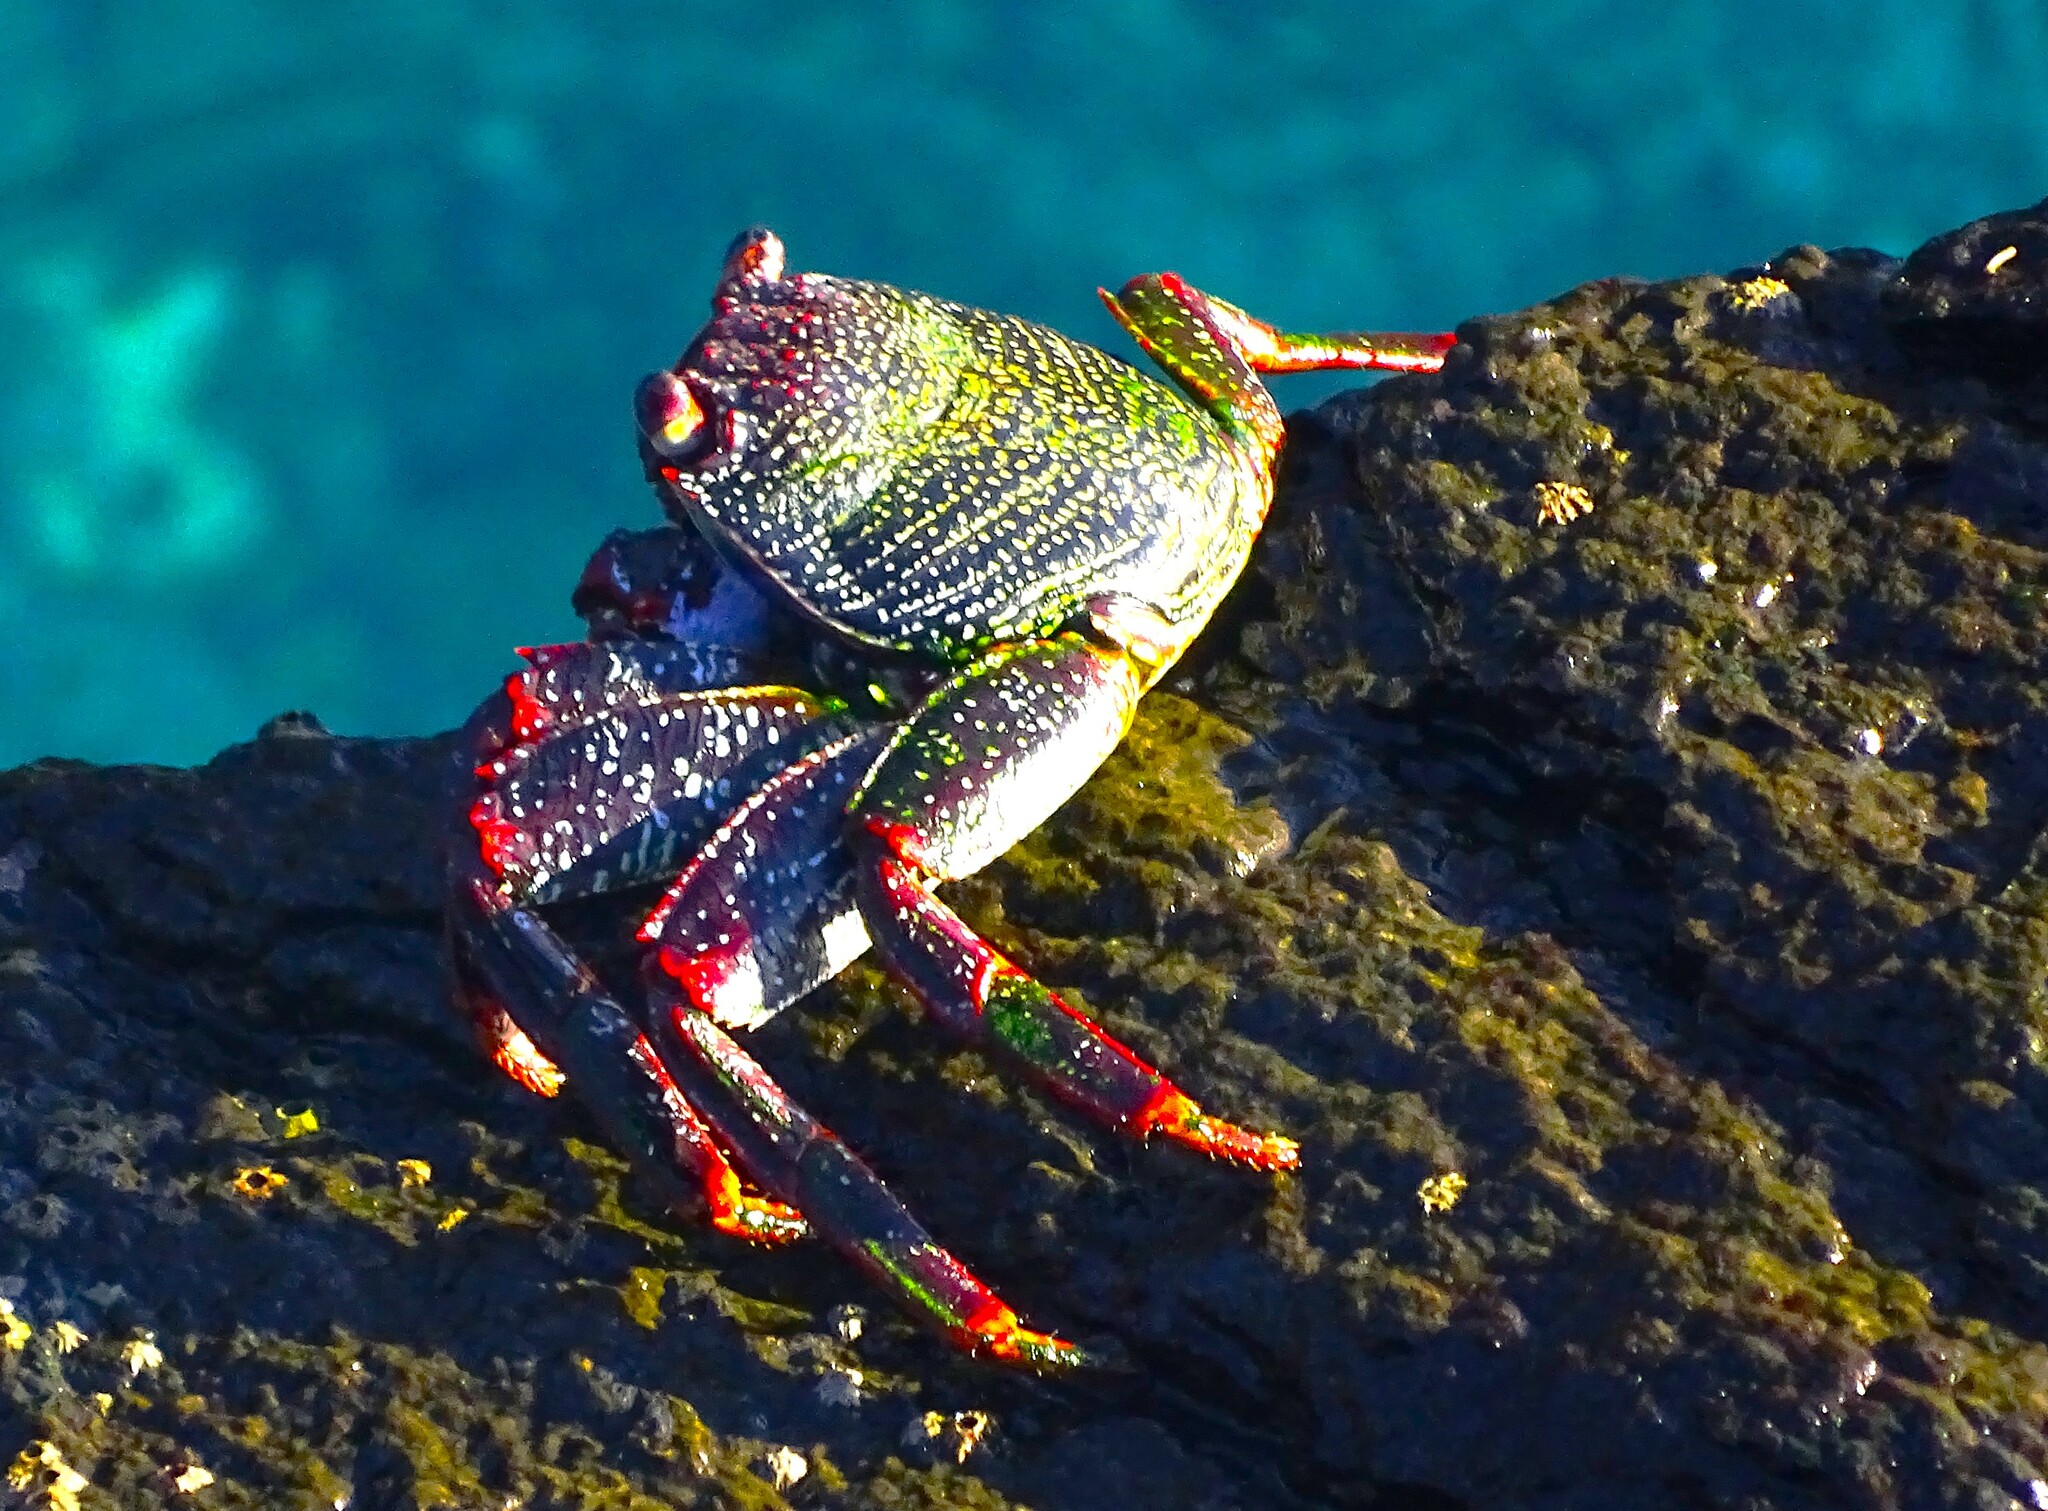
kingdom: Animalia
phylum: Arthropoda
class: Malacostraca
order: Decapoda
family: Grapsidae
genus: Grapsus
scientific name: Grapsus adscensionis
